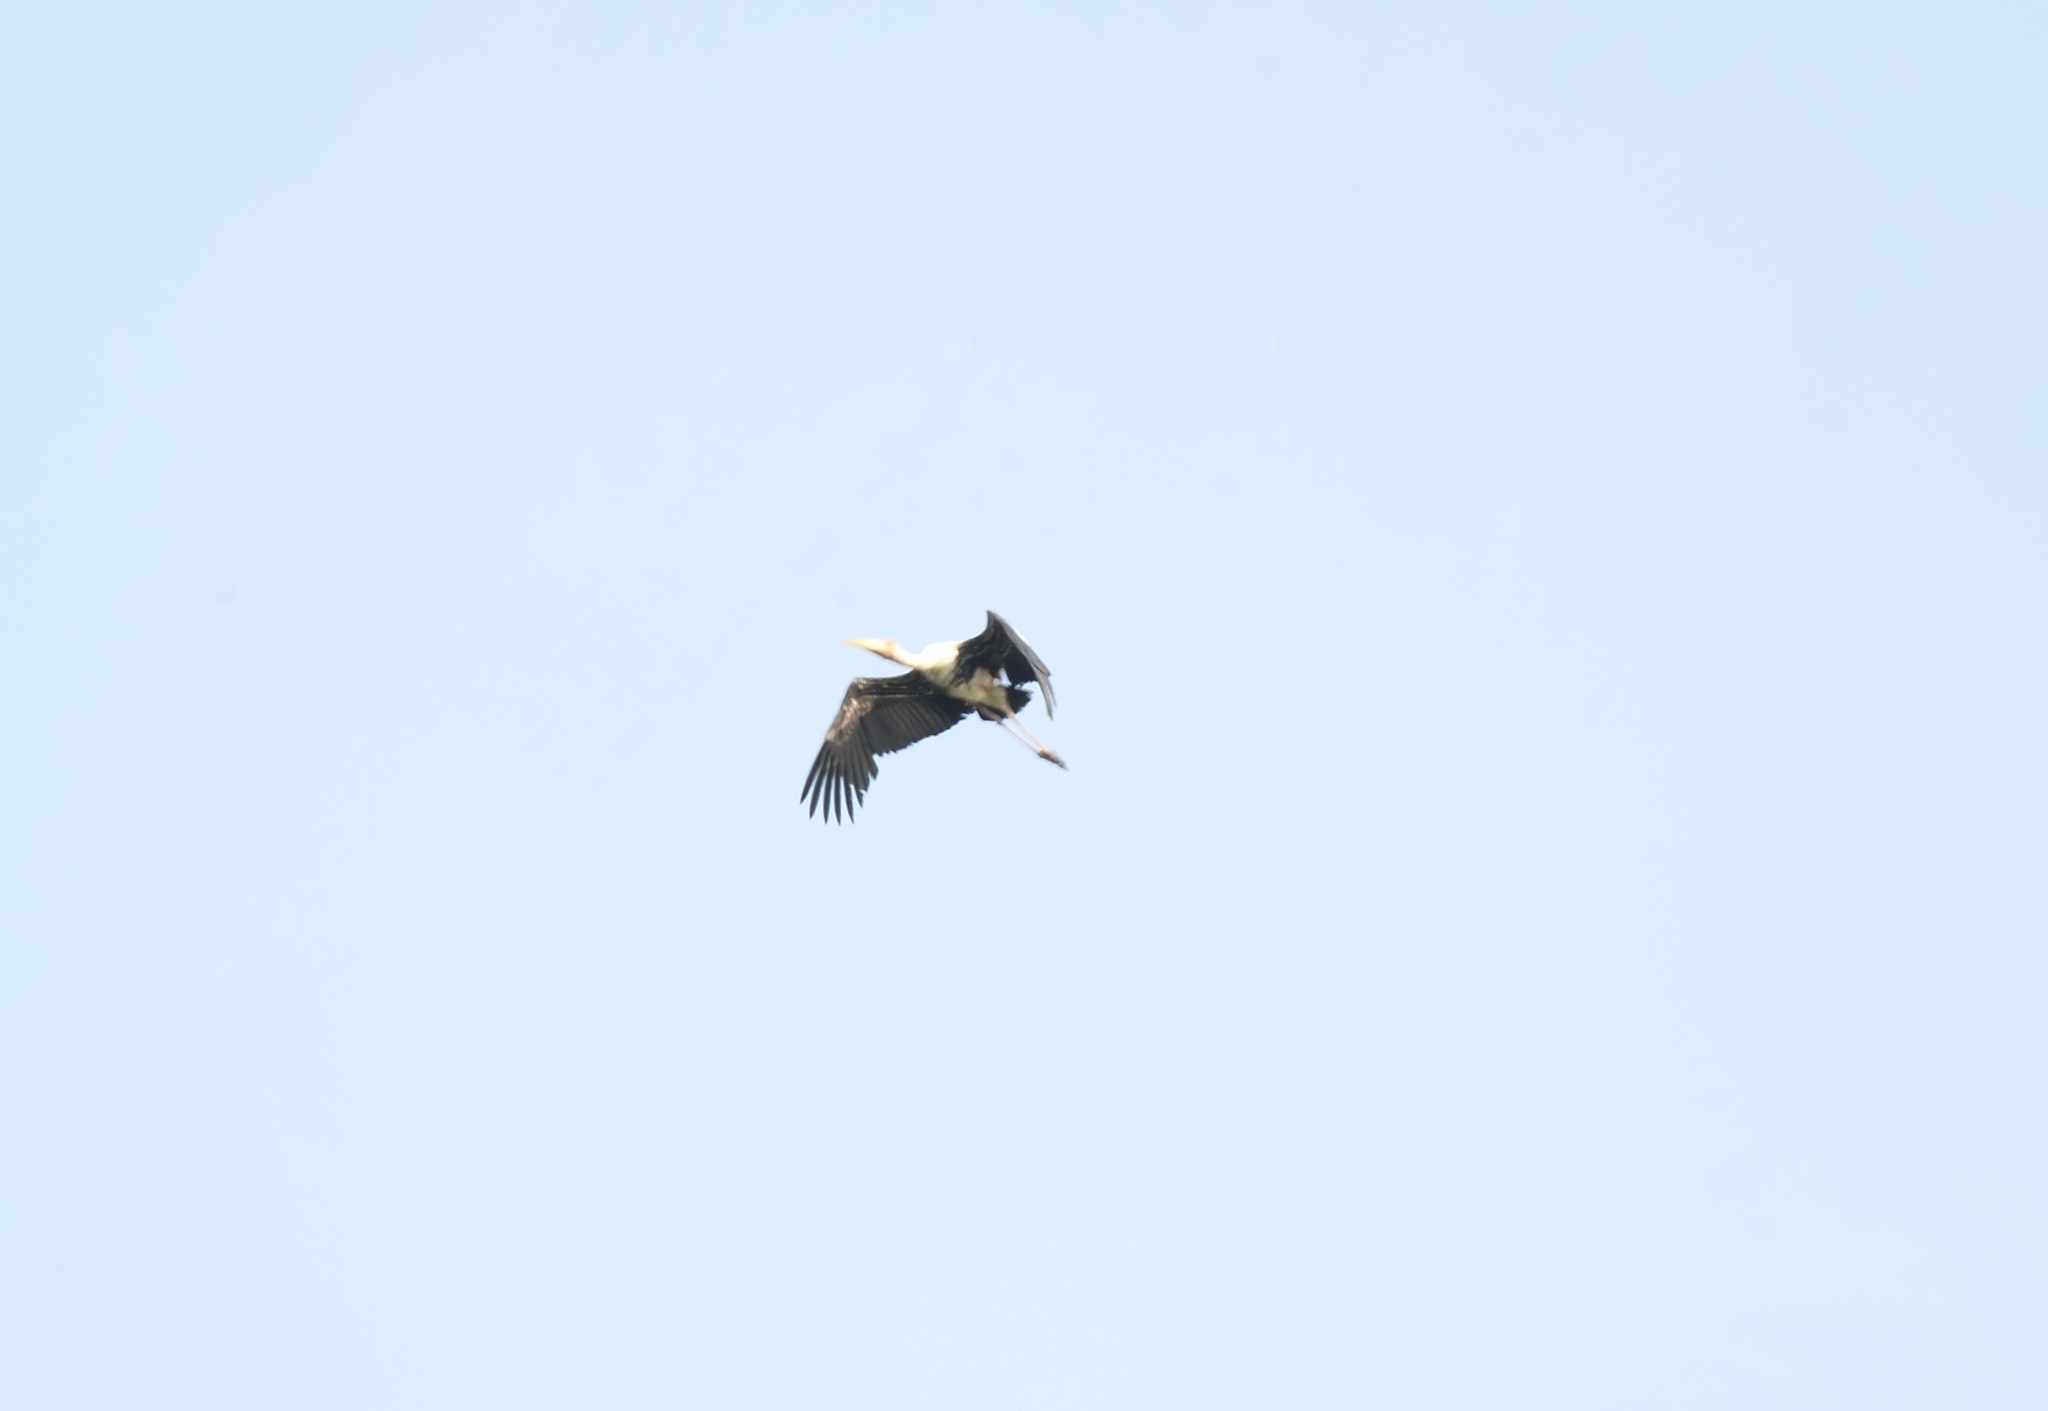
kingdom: Animalia
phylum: Chordata
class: Aves
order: Ciconiiformes
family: Ciconiidae
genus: Mycteria
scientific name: Mycteria leucocephala
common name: Painted stork
